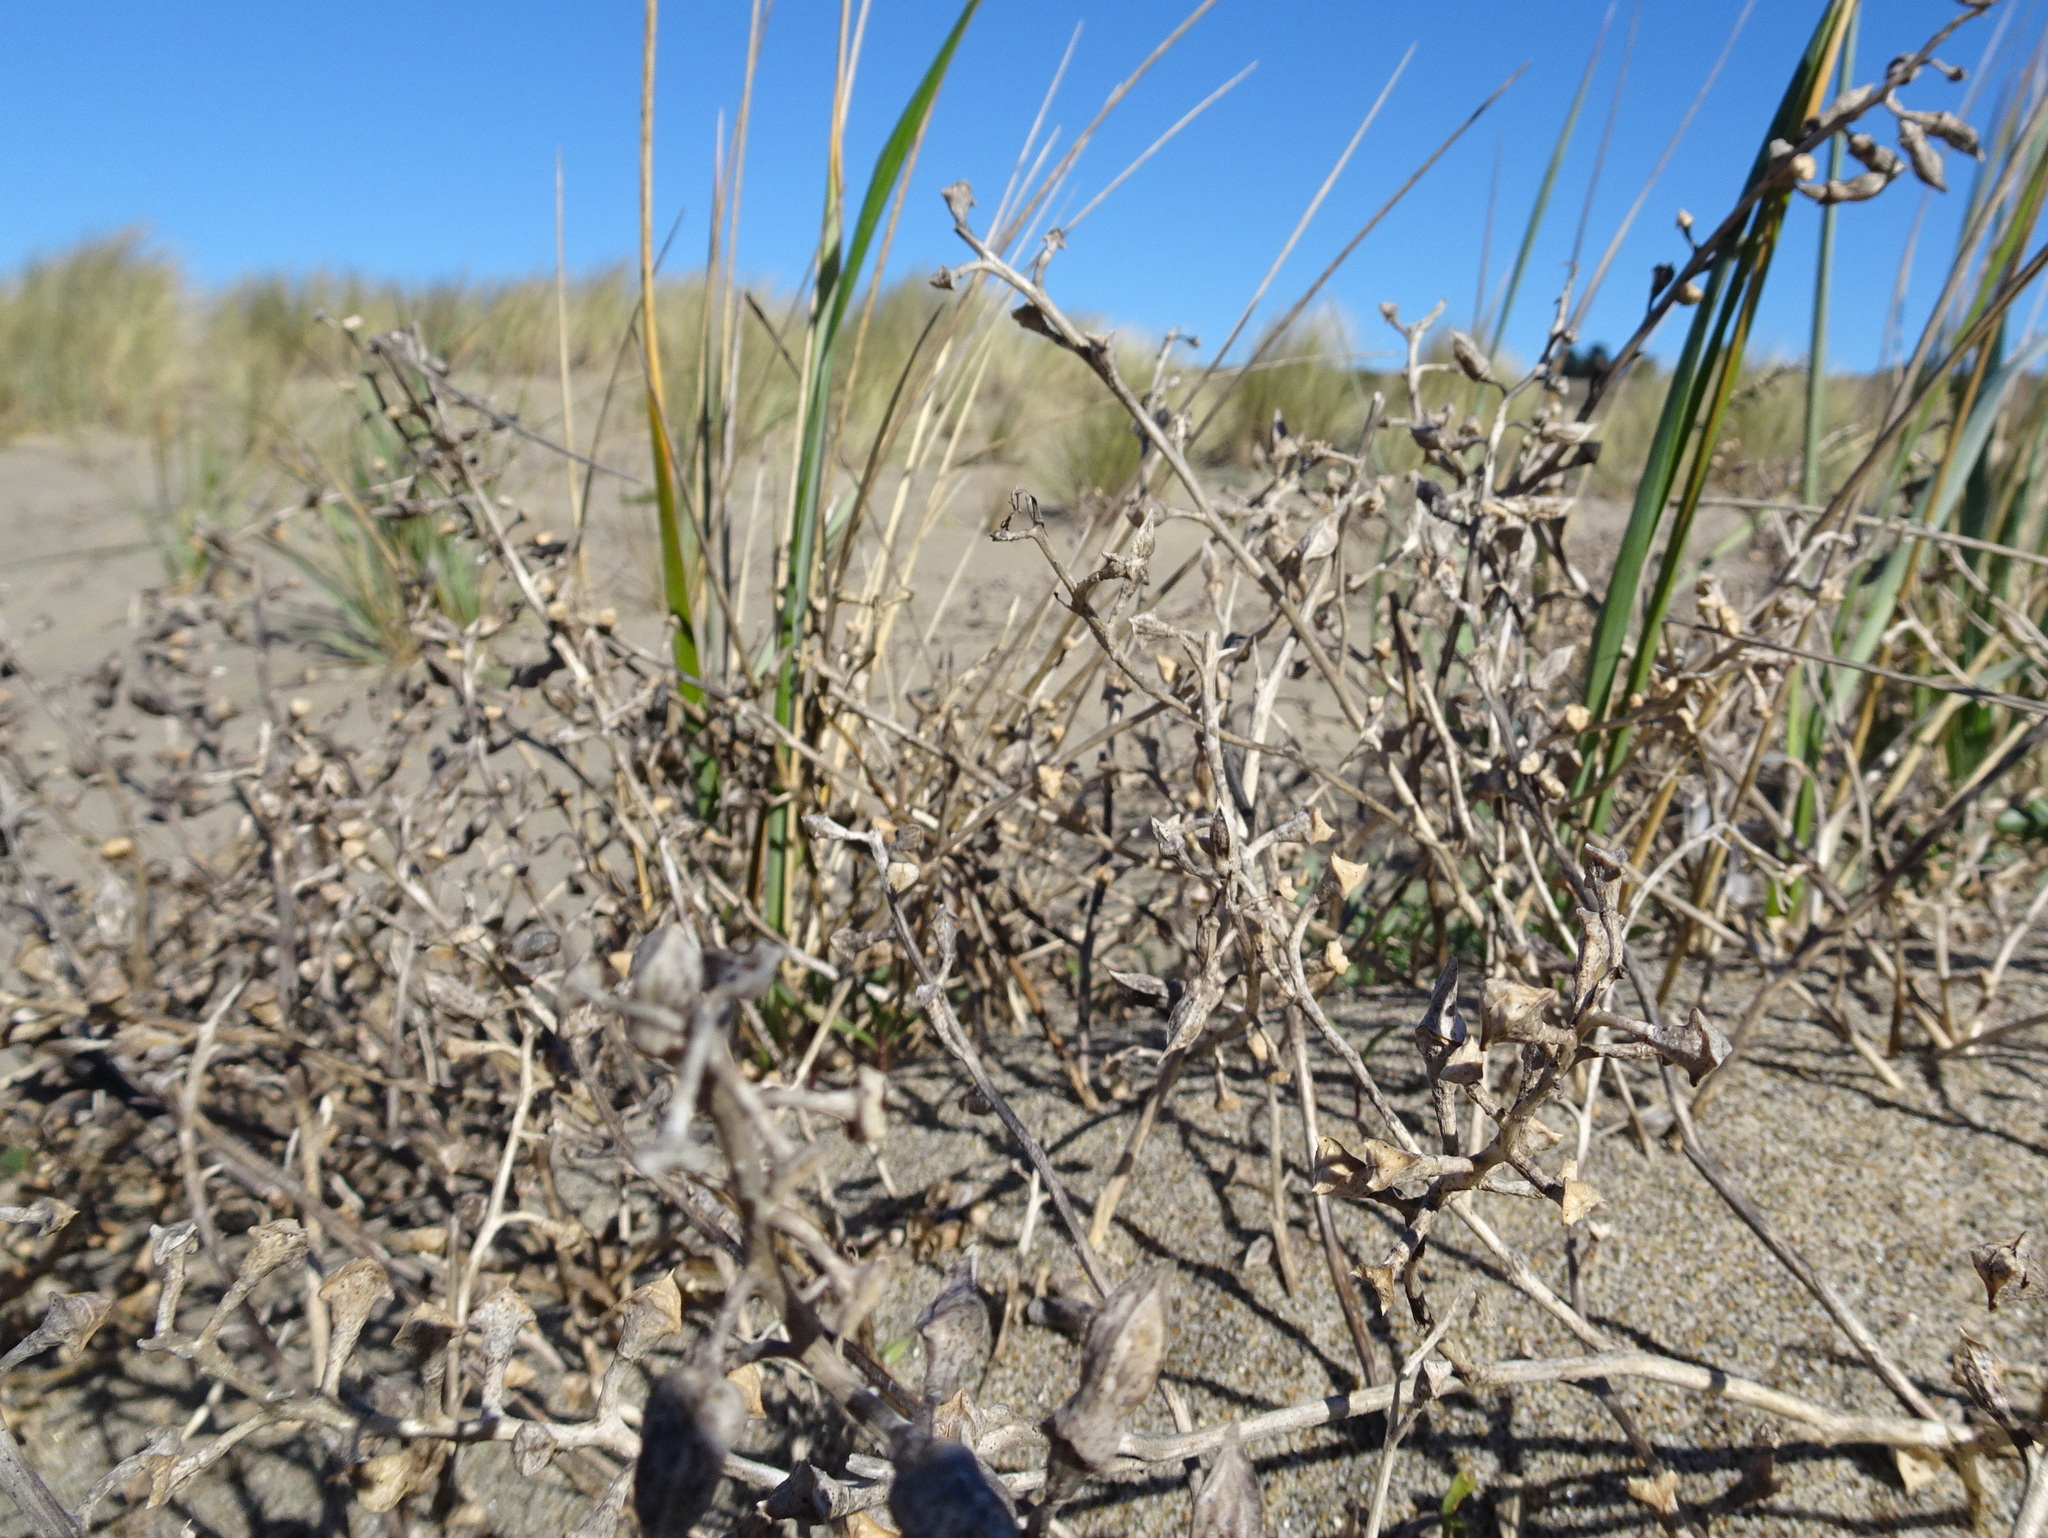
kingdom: Plantae
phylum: Tracheophyta
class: Magnoliopsida
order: Brassicales
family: Brassicaceae
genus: Cakile
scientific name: Cakile maritima
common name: Sea rocket
